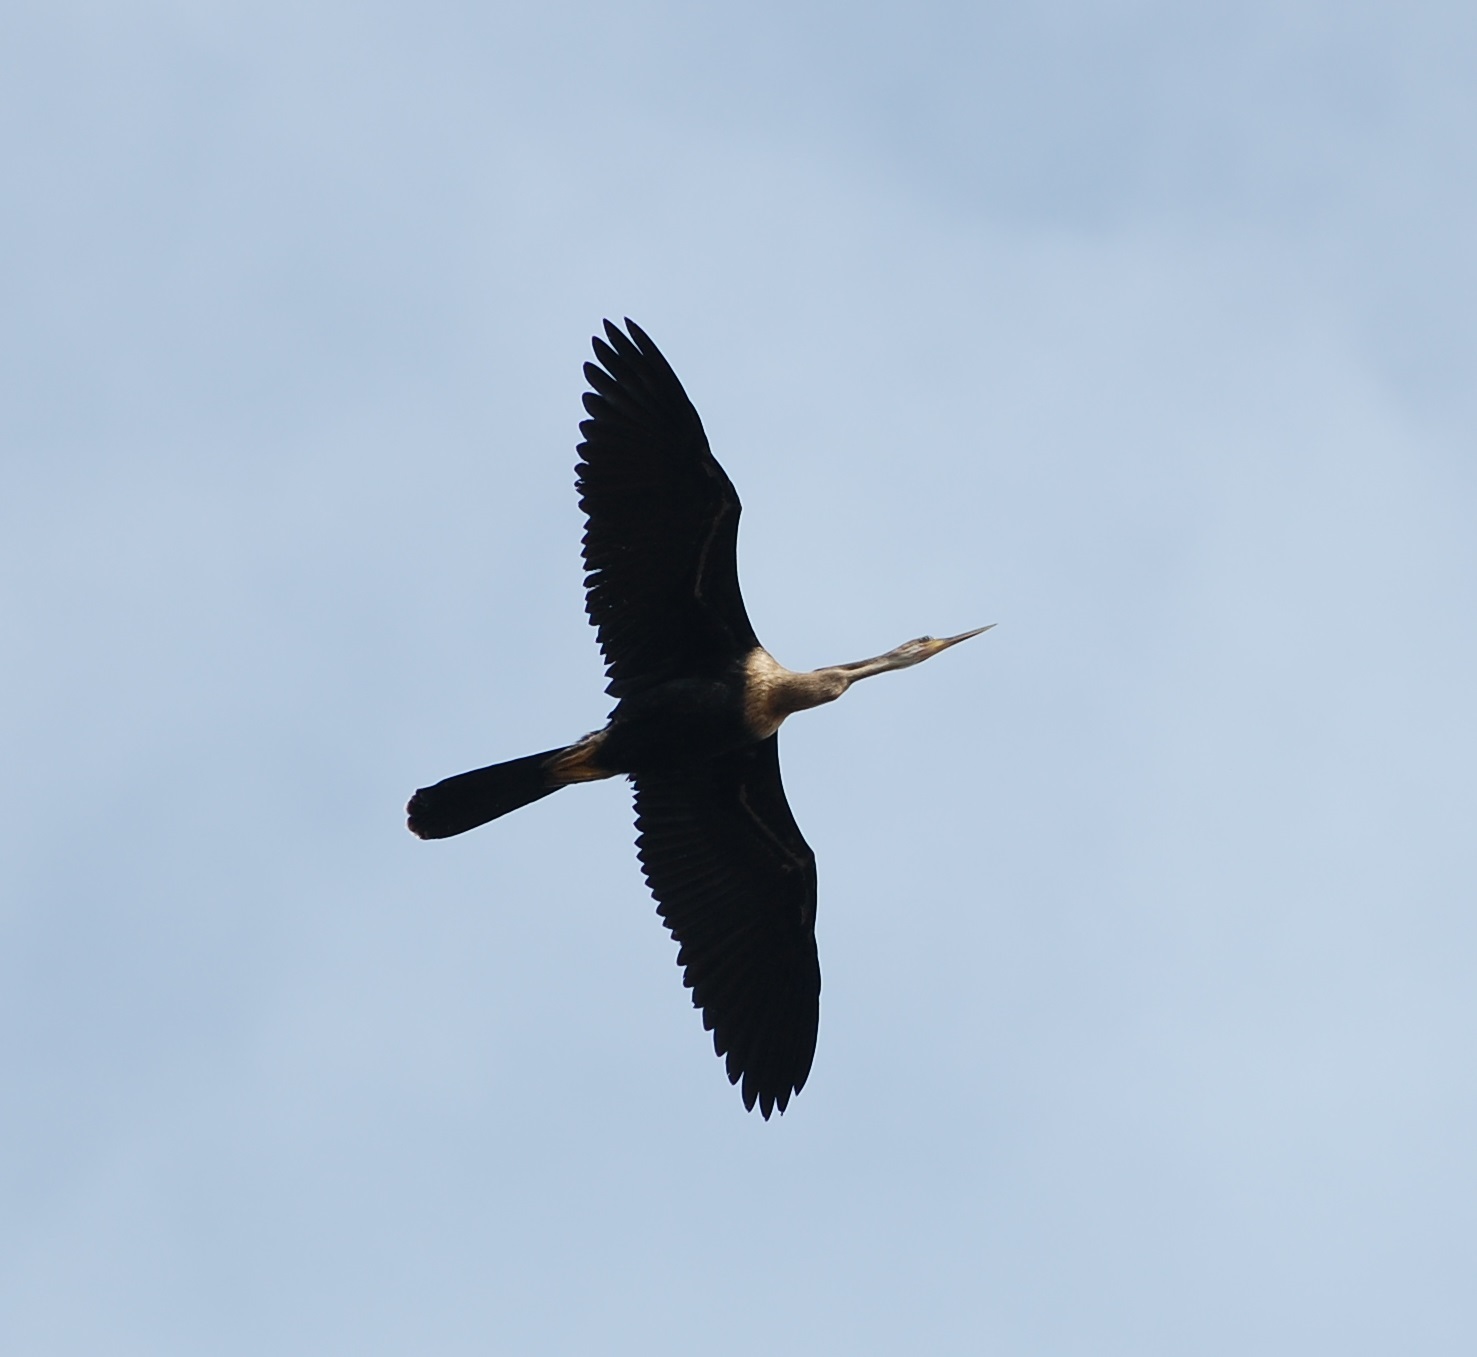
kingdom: Animalia
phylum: Chordata
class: Aves
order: Suliformes
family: Anhingidae
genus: Anhinga
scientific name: Anhinga anhinga
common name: Anhinga
